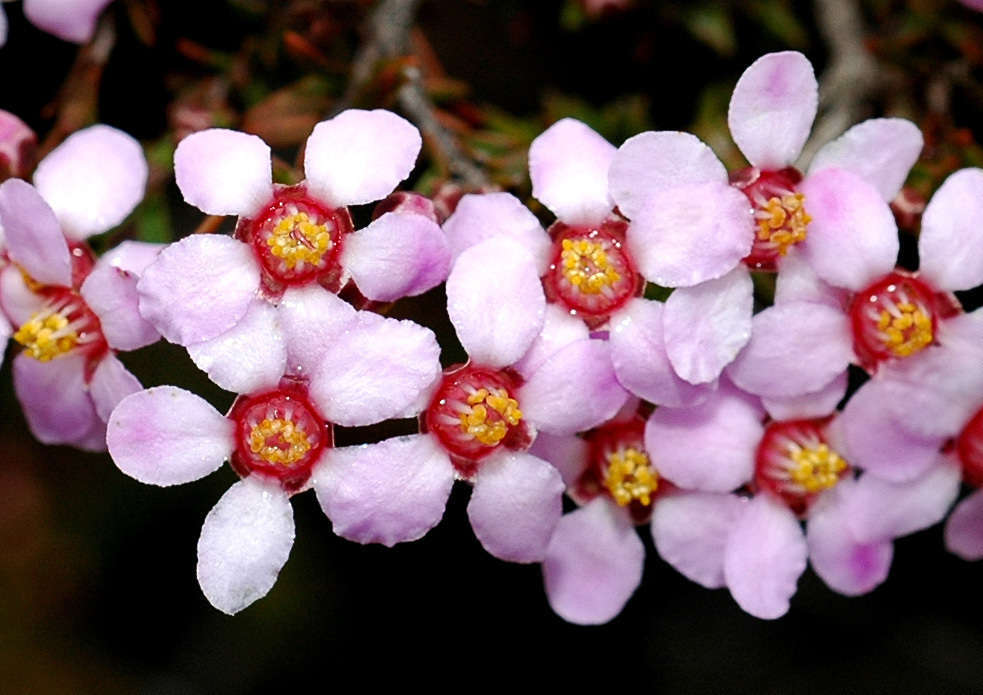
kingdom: Plantae
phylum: Tracheophyta
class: Magnoliopsida
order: Myrtales
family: Myrtaceae
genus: Euryomyrtus
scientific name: Euryomyrtus ramosissima
